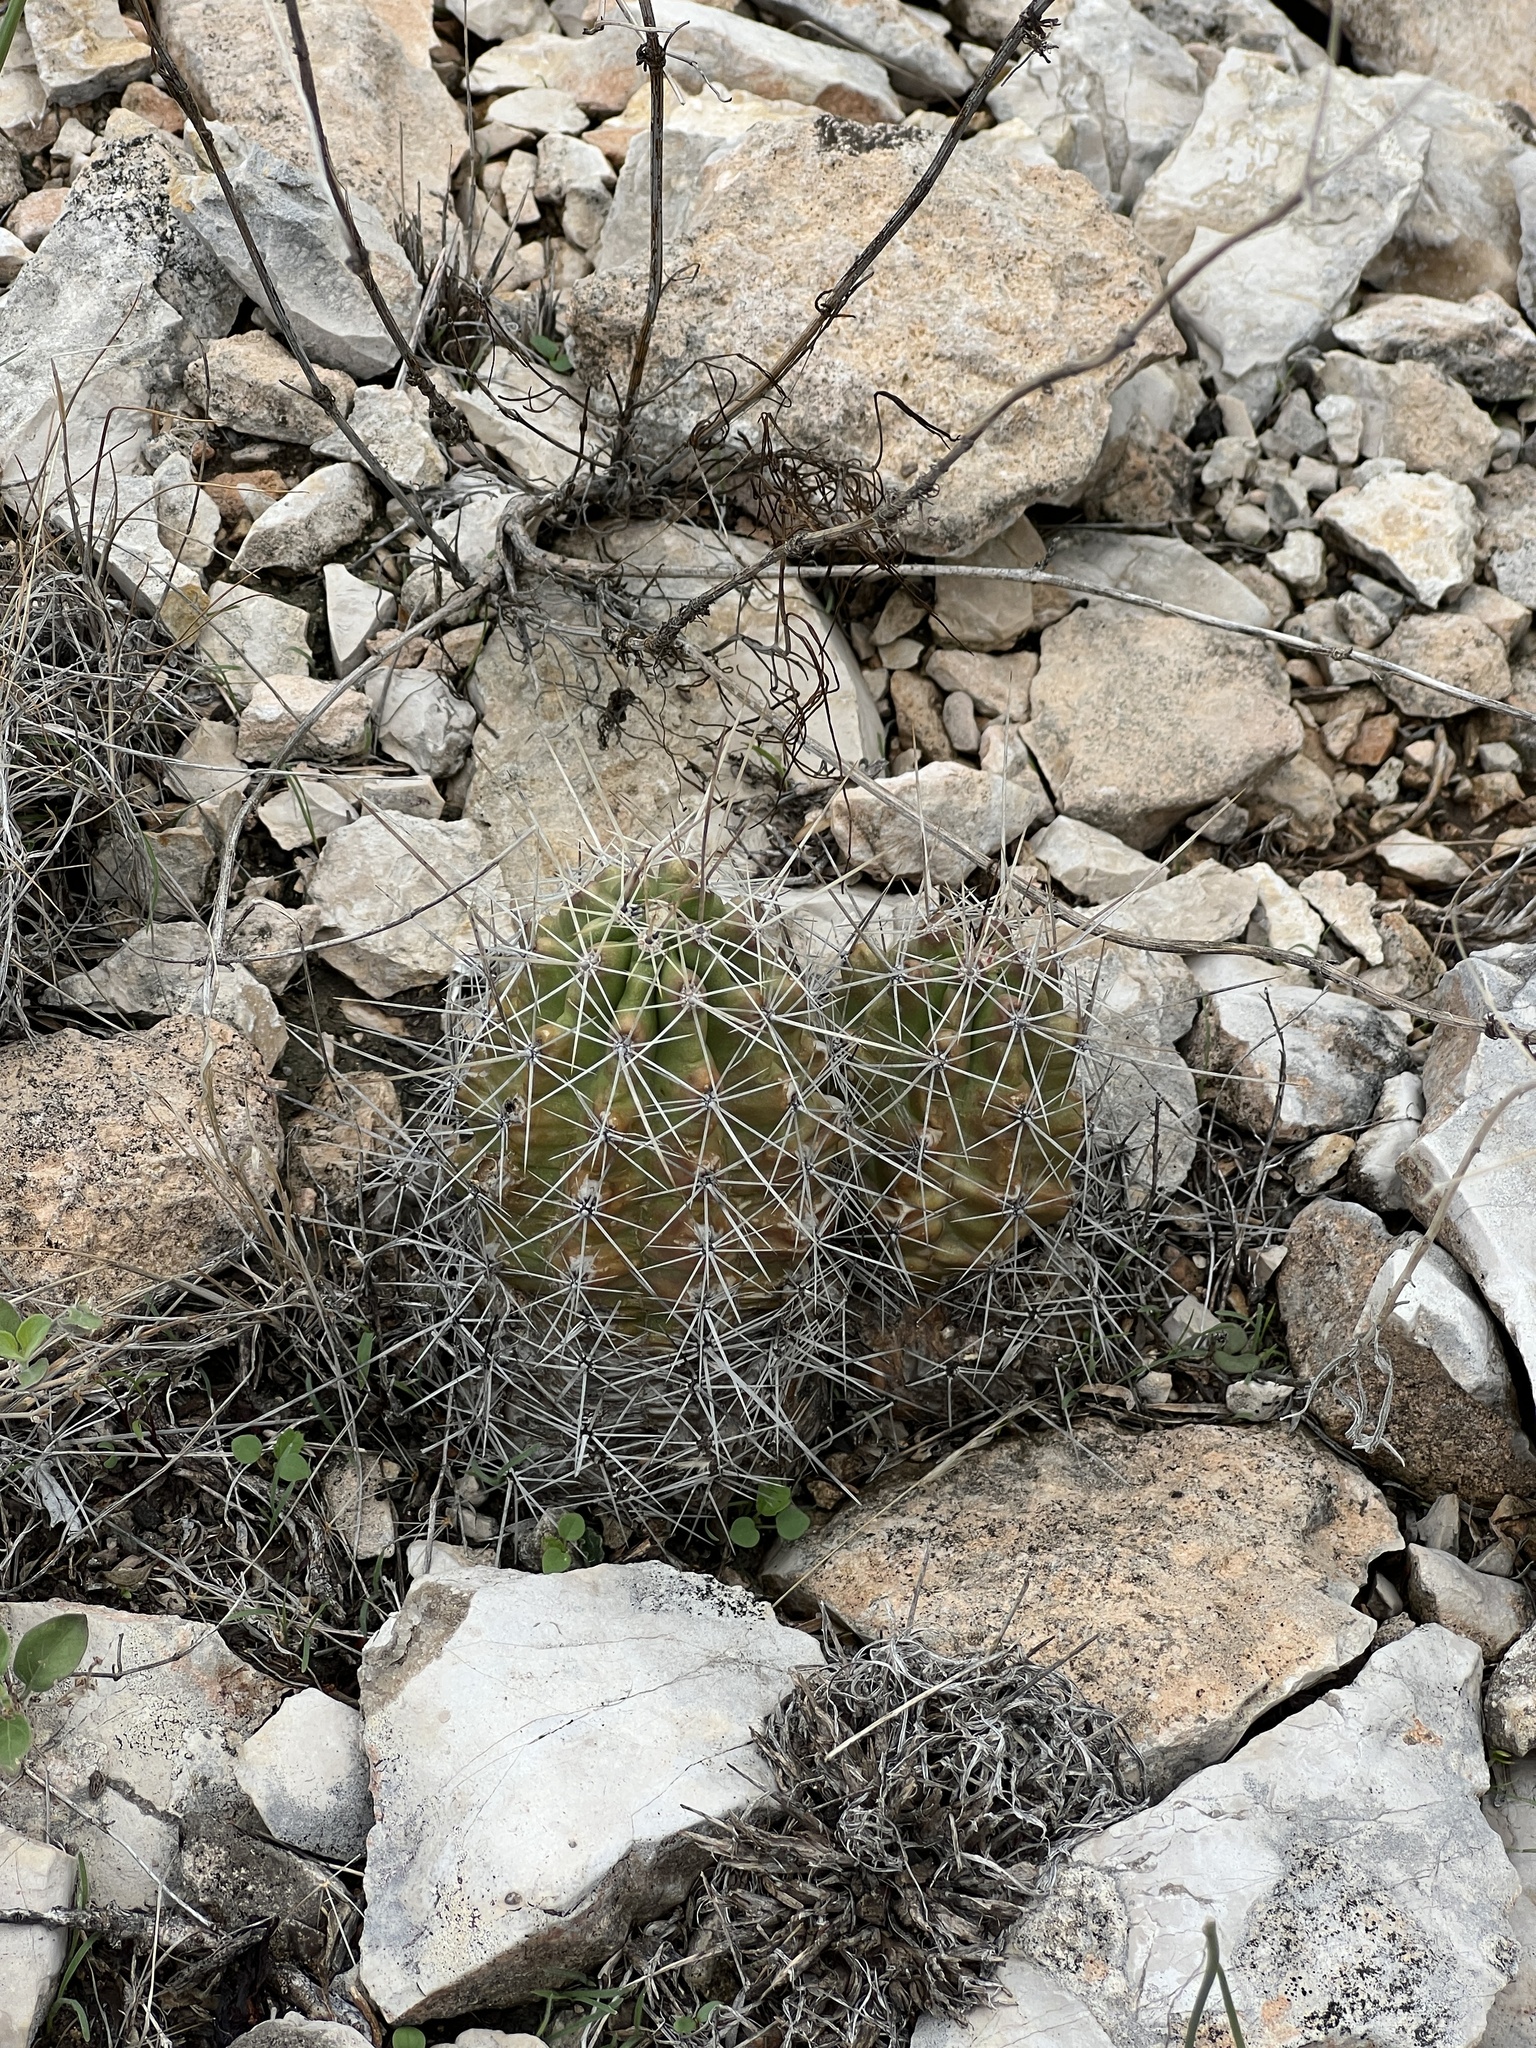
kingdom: Plantae
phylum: Tracheophyta
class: Magnoliopsida
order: Caryophyllales
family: Cactaceae
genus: Echinocereus
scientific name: Echinocereus enneacanthus
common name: Pitaya
